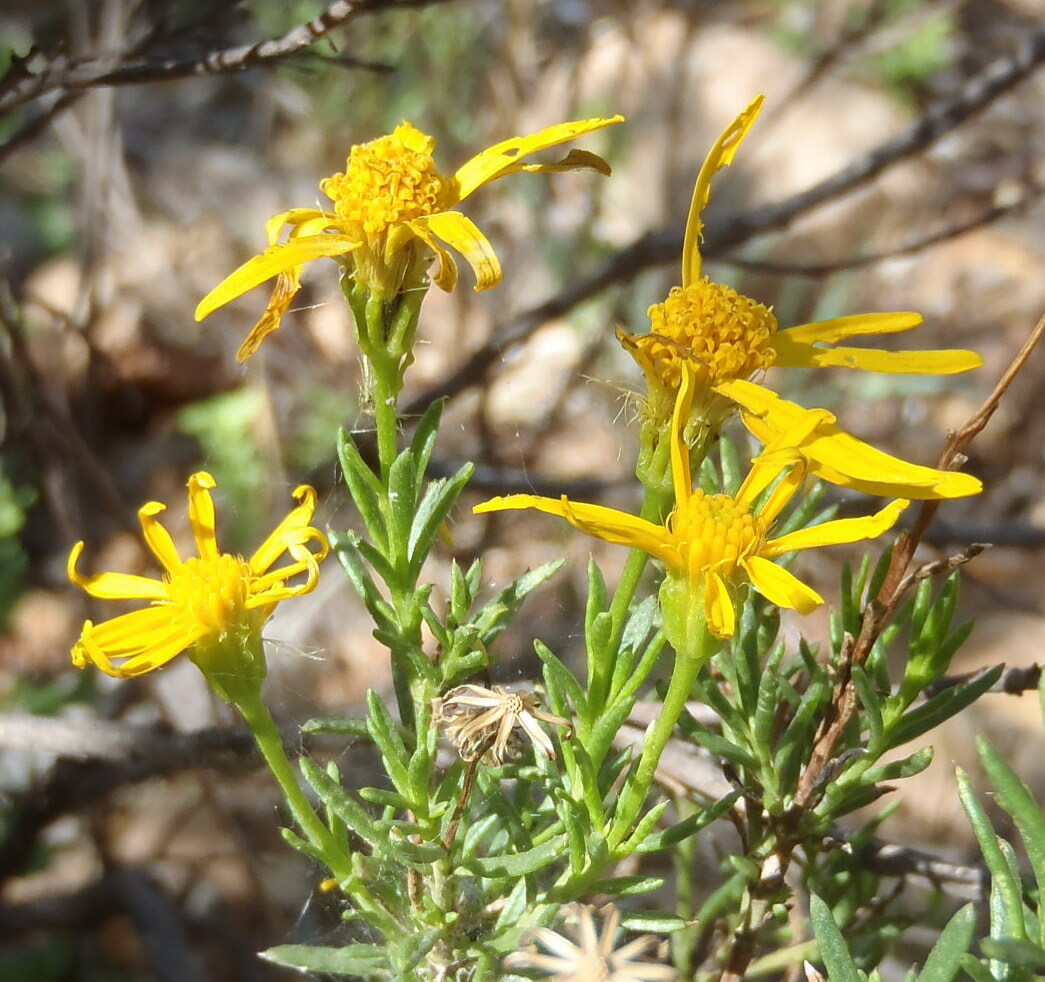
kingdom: Plantae
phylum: Tracheophyta
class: Magnoliopsida
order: Asterales
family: Asteraceae
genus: Chrysactinia
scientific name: Chrysactinia mexicana
